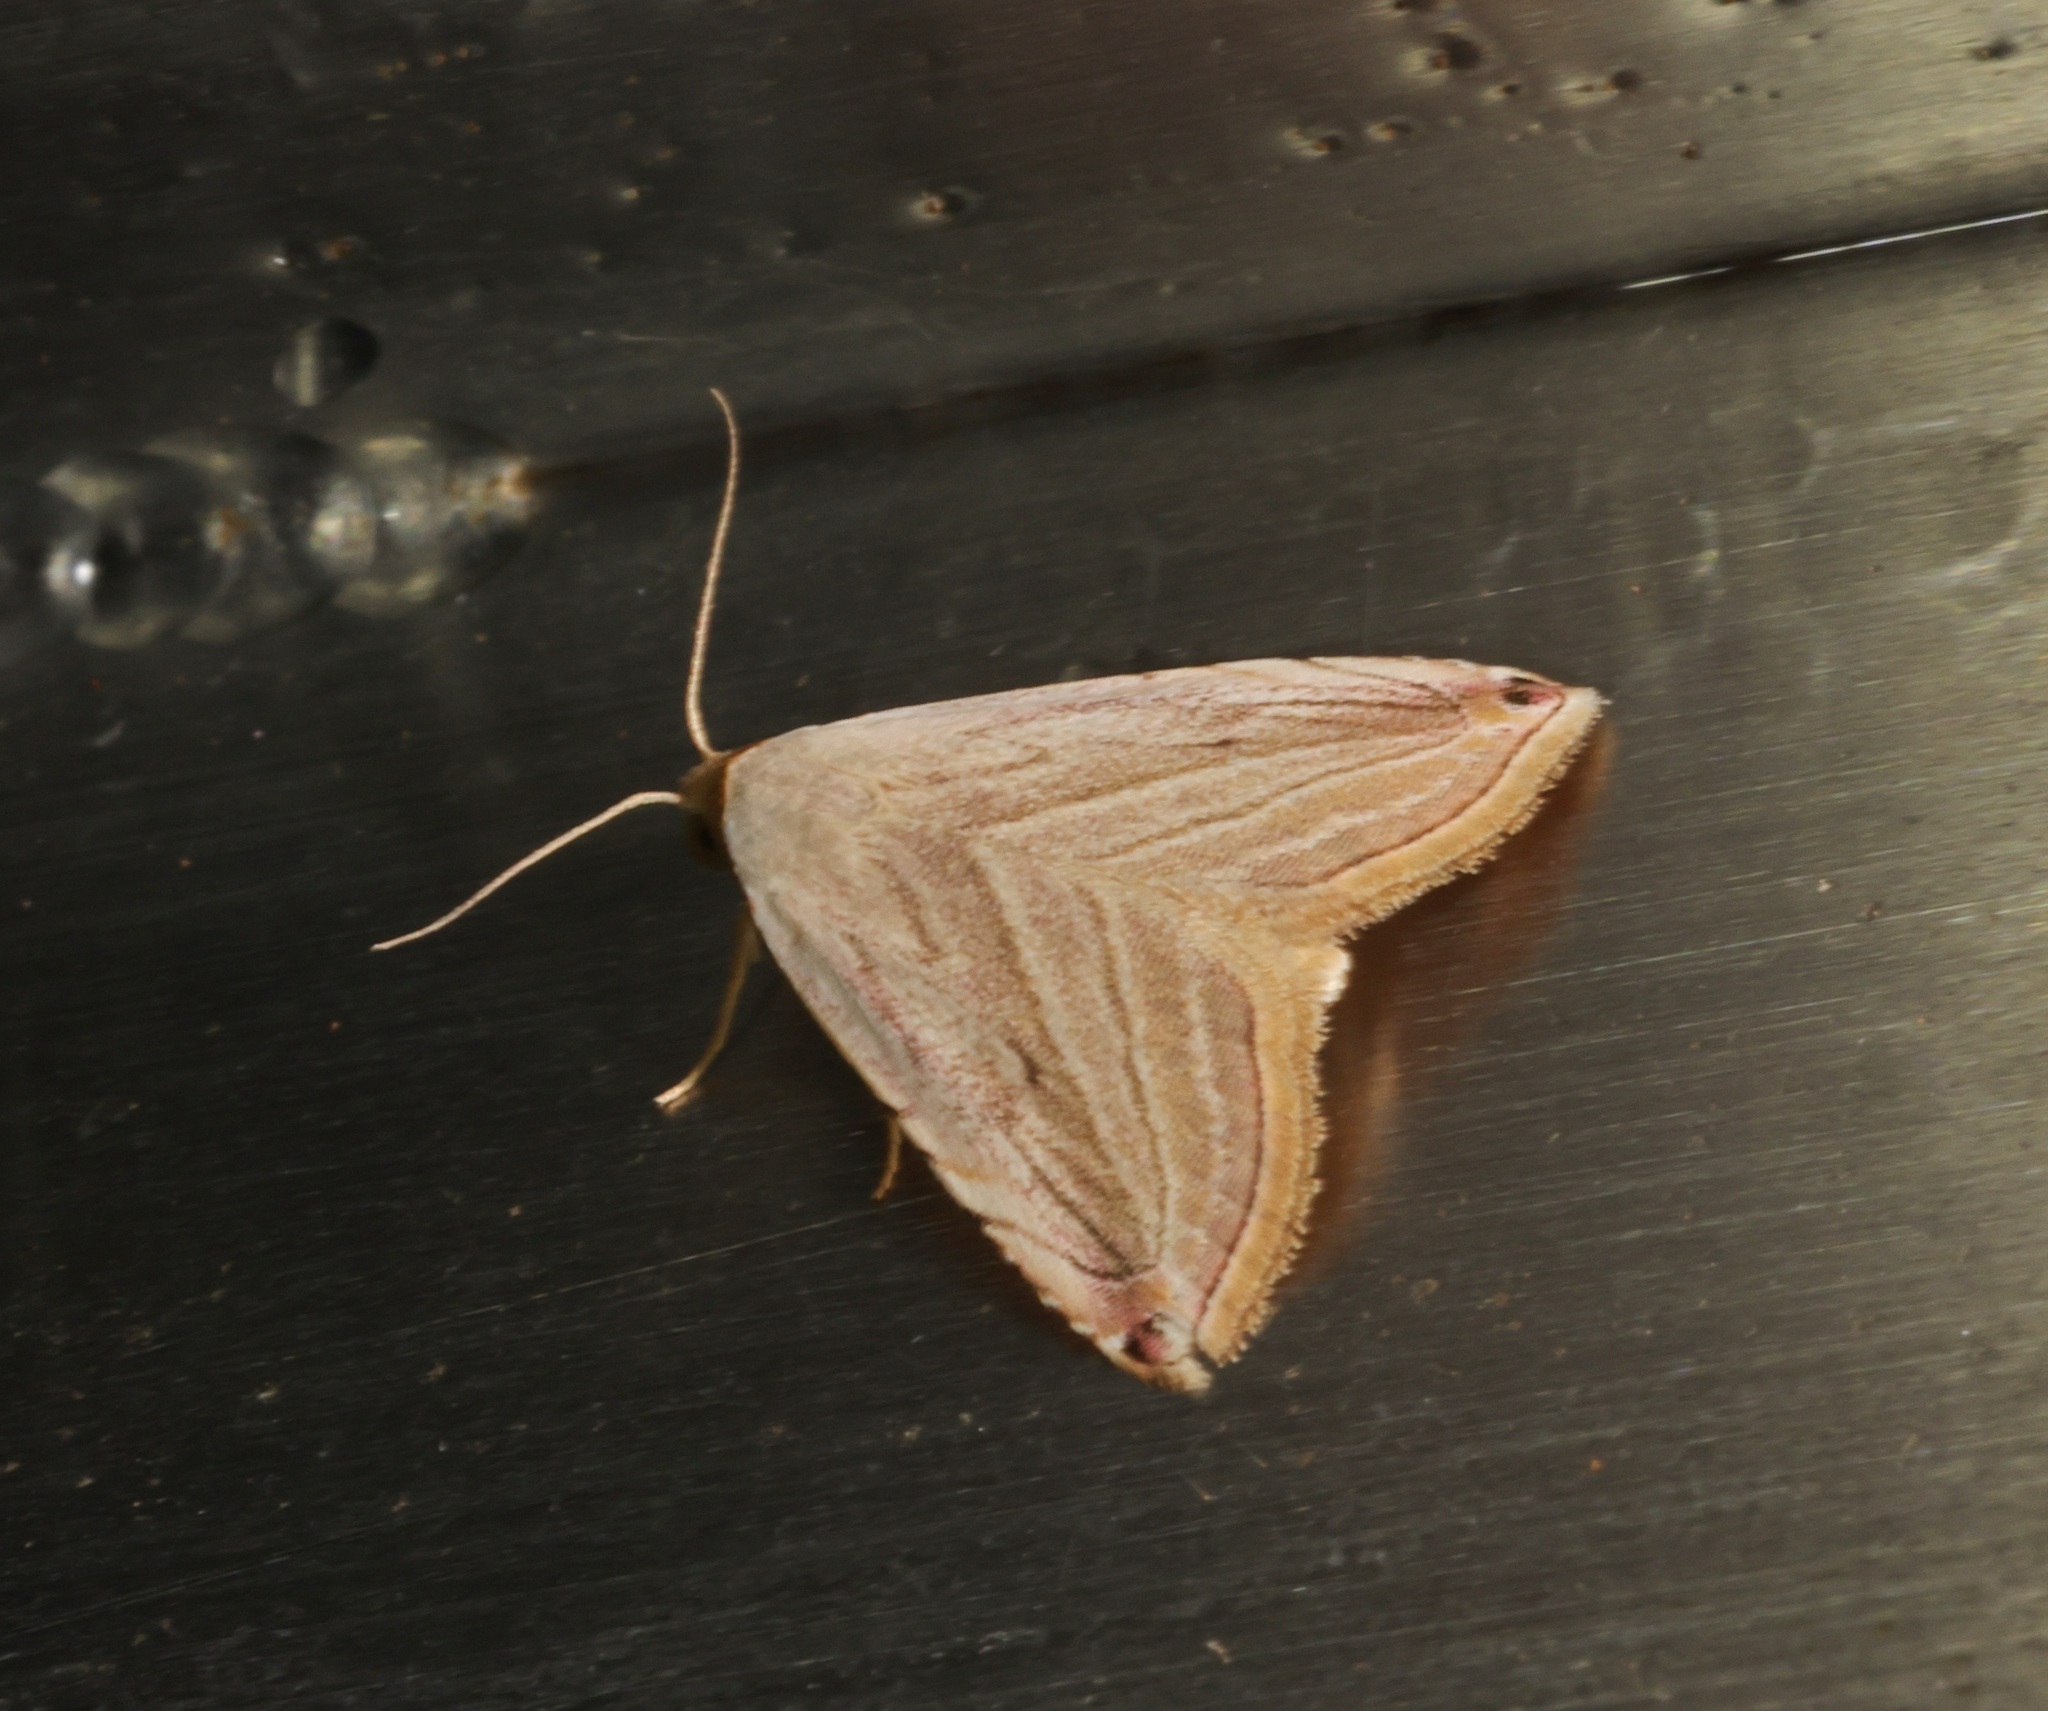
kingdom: Animalia
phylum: Arthropoda
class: Insecta
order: Lepidoptera
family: Noctuidae
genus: Honeyania
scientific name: Honeyania ragusana
